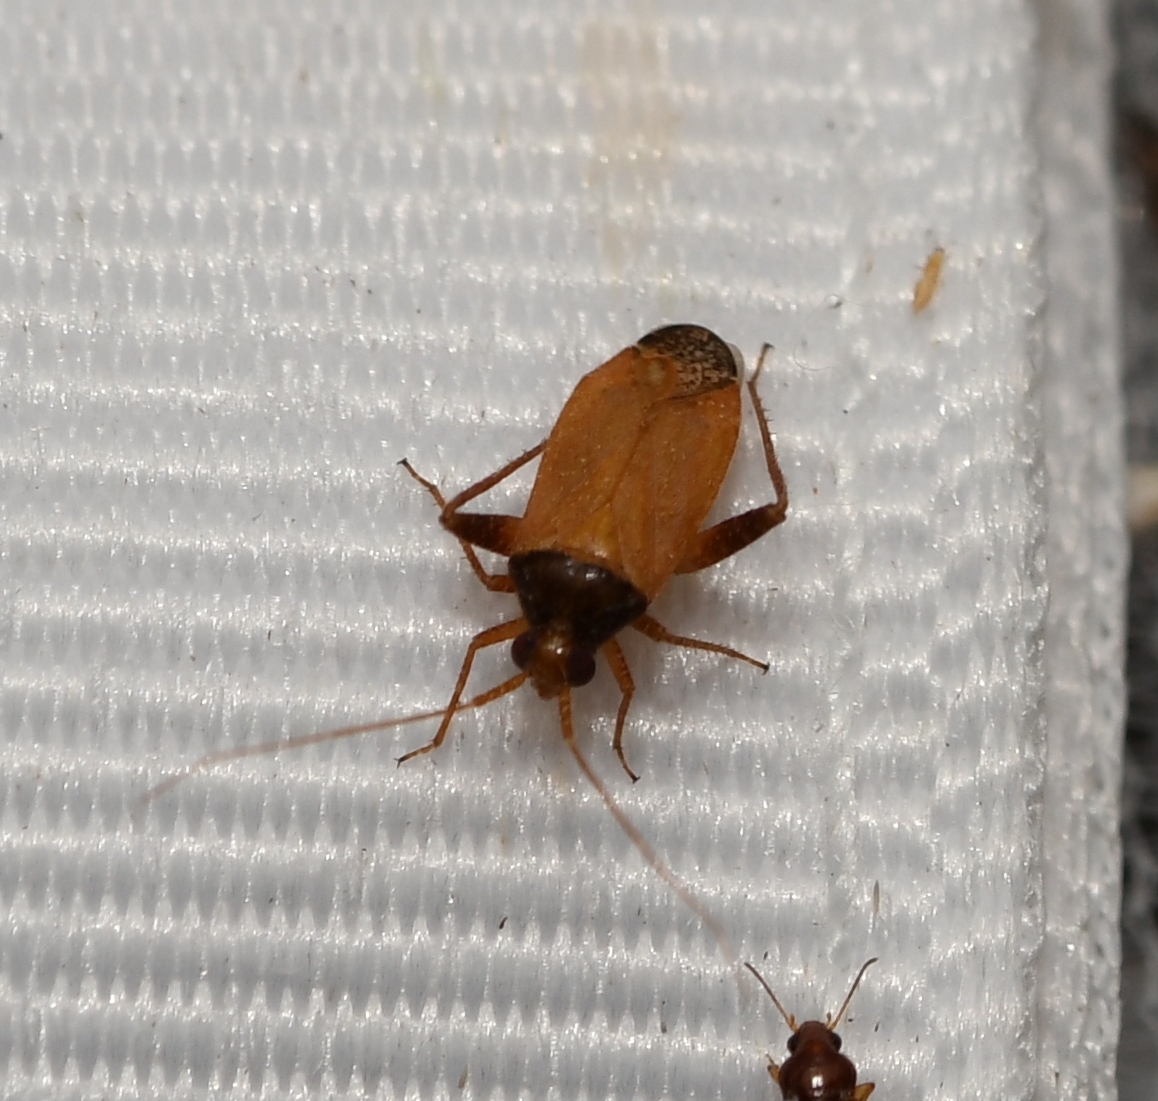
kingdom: Animalia
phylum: Arthropoda
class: Insecta
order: Hemiptera
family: Miridae
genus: Phytocoris
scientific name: Phytocoris ramosus
